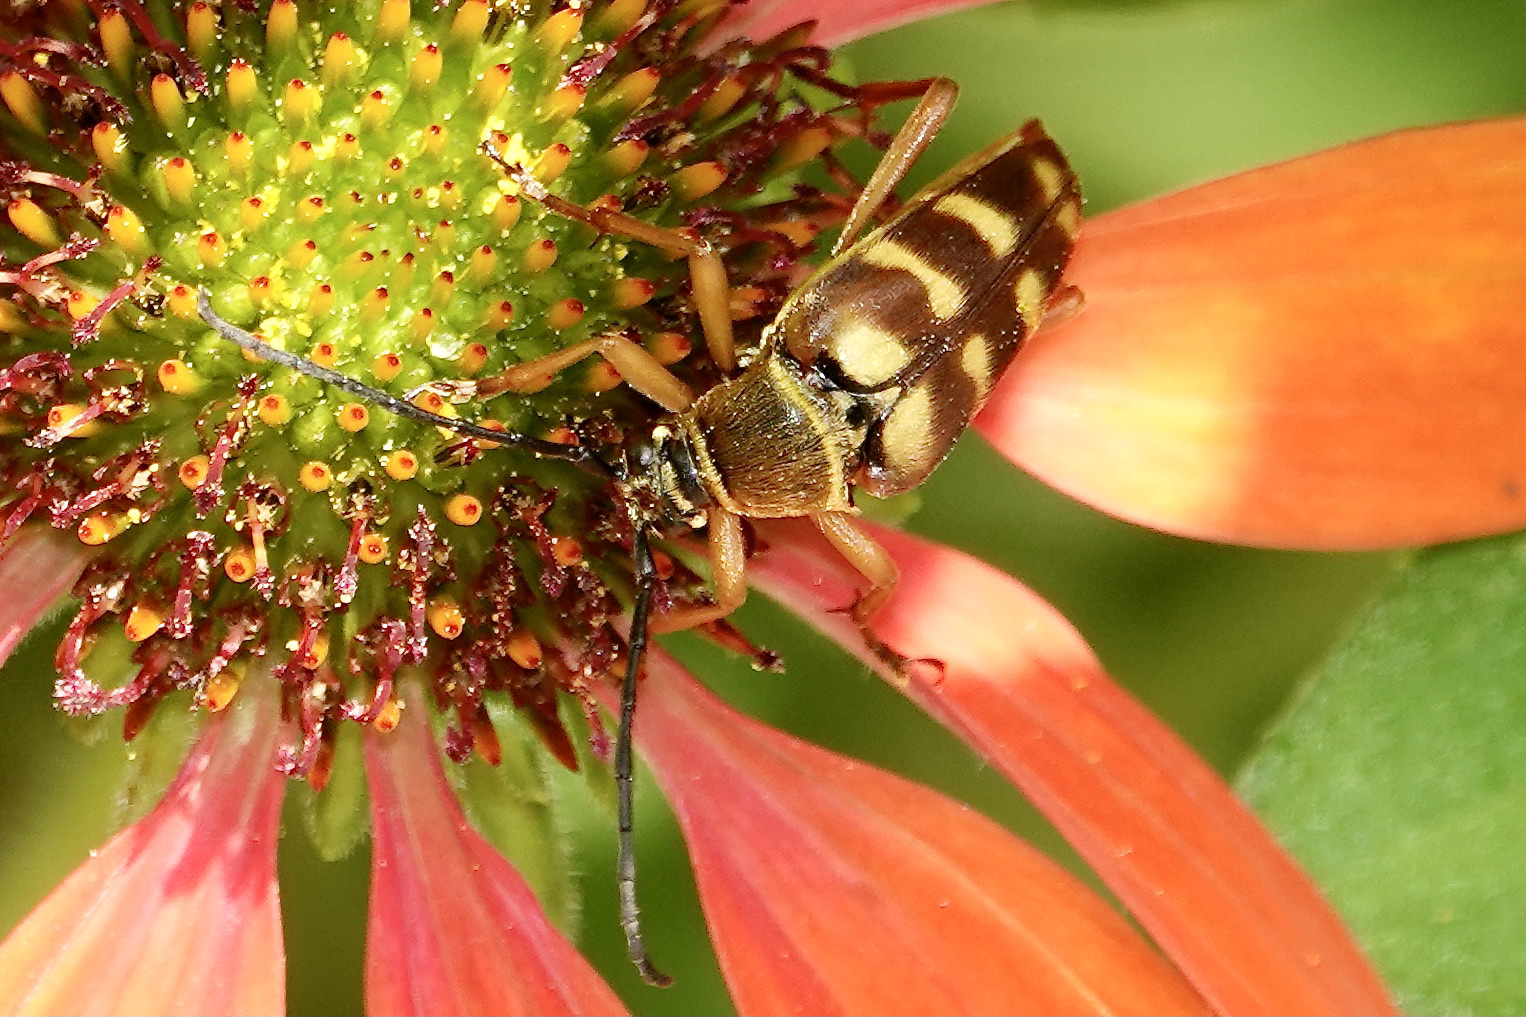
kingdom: Animalia
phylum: Arthropoda
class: Insecta
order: Coleoptera
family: Cerambycidae
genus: Typocerus
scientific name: Typocerus velutinus
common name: Banded longhorn beetle
